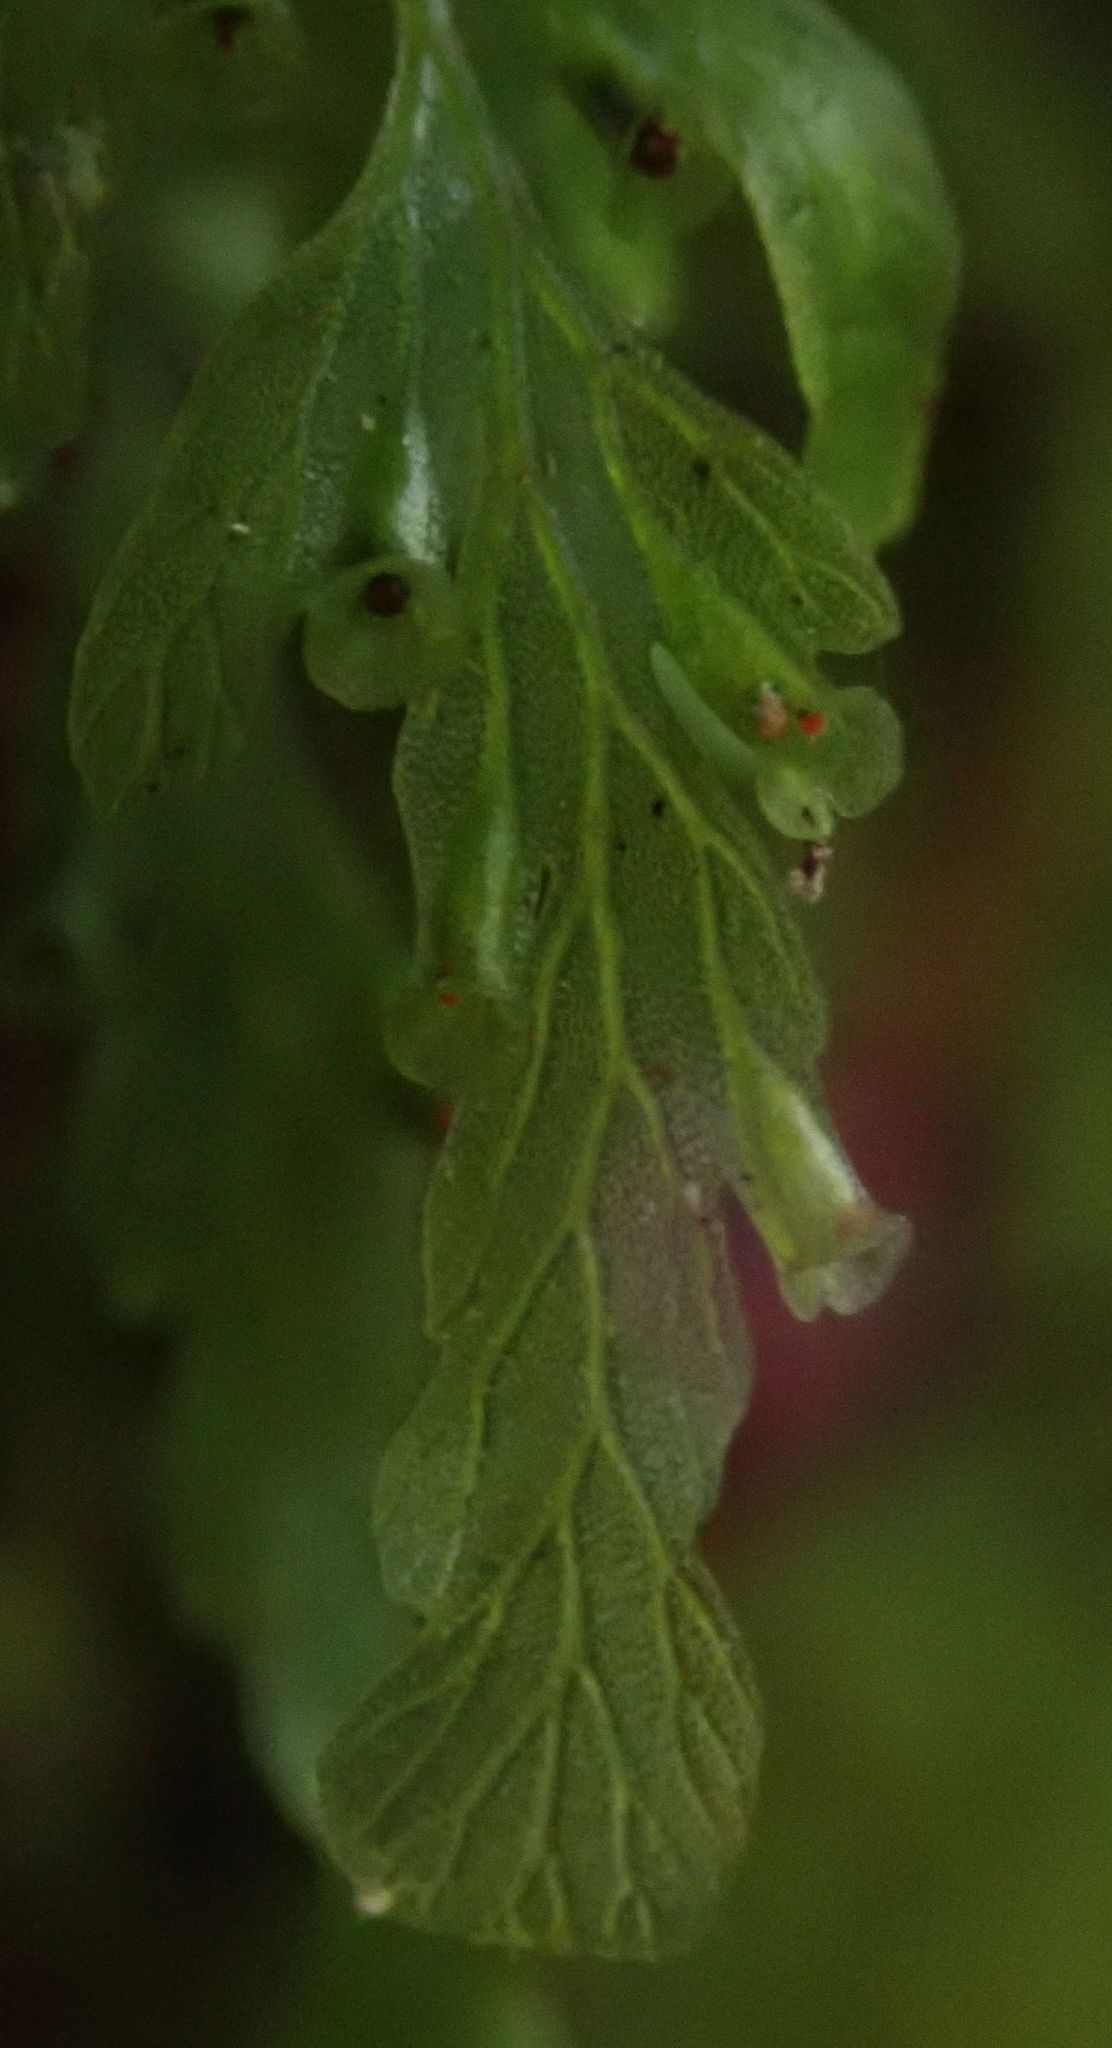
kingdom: Plantae
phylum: Tracheophyta
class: Polypodiopsida
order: Hymenophyllales
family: Hymenophyllaceae
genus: Polyphlebium
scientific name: Polyphlebium venosum
